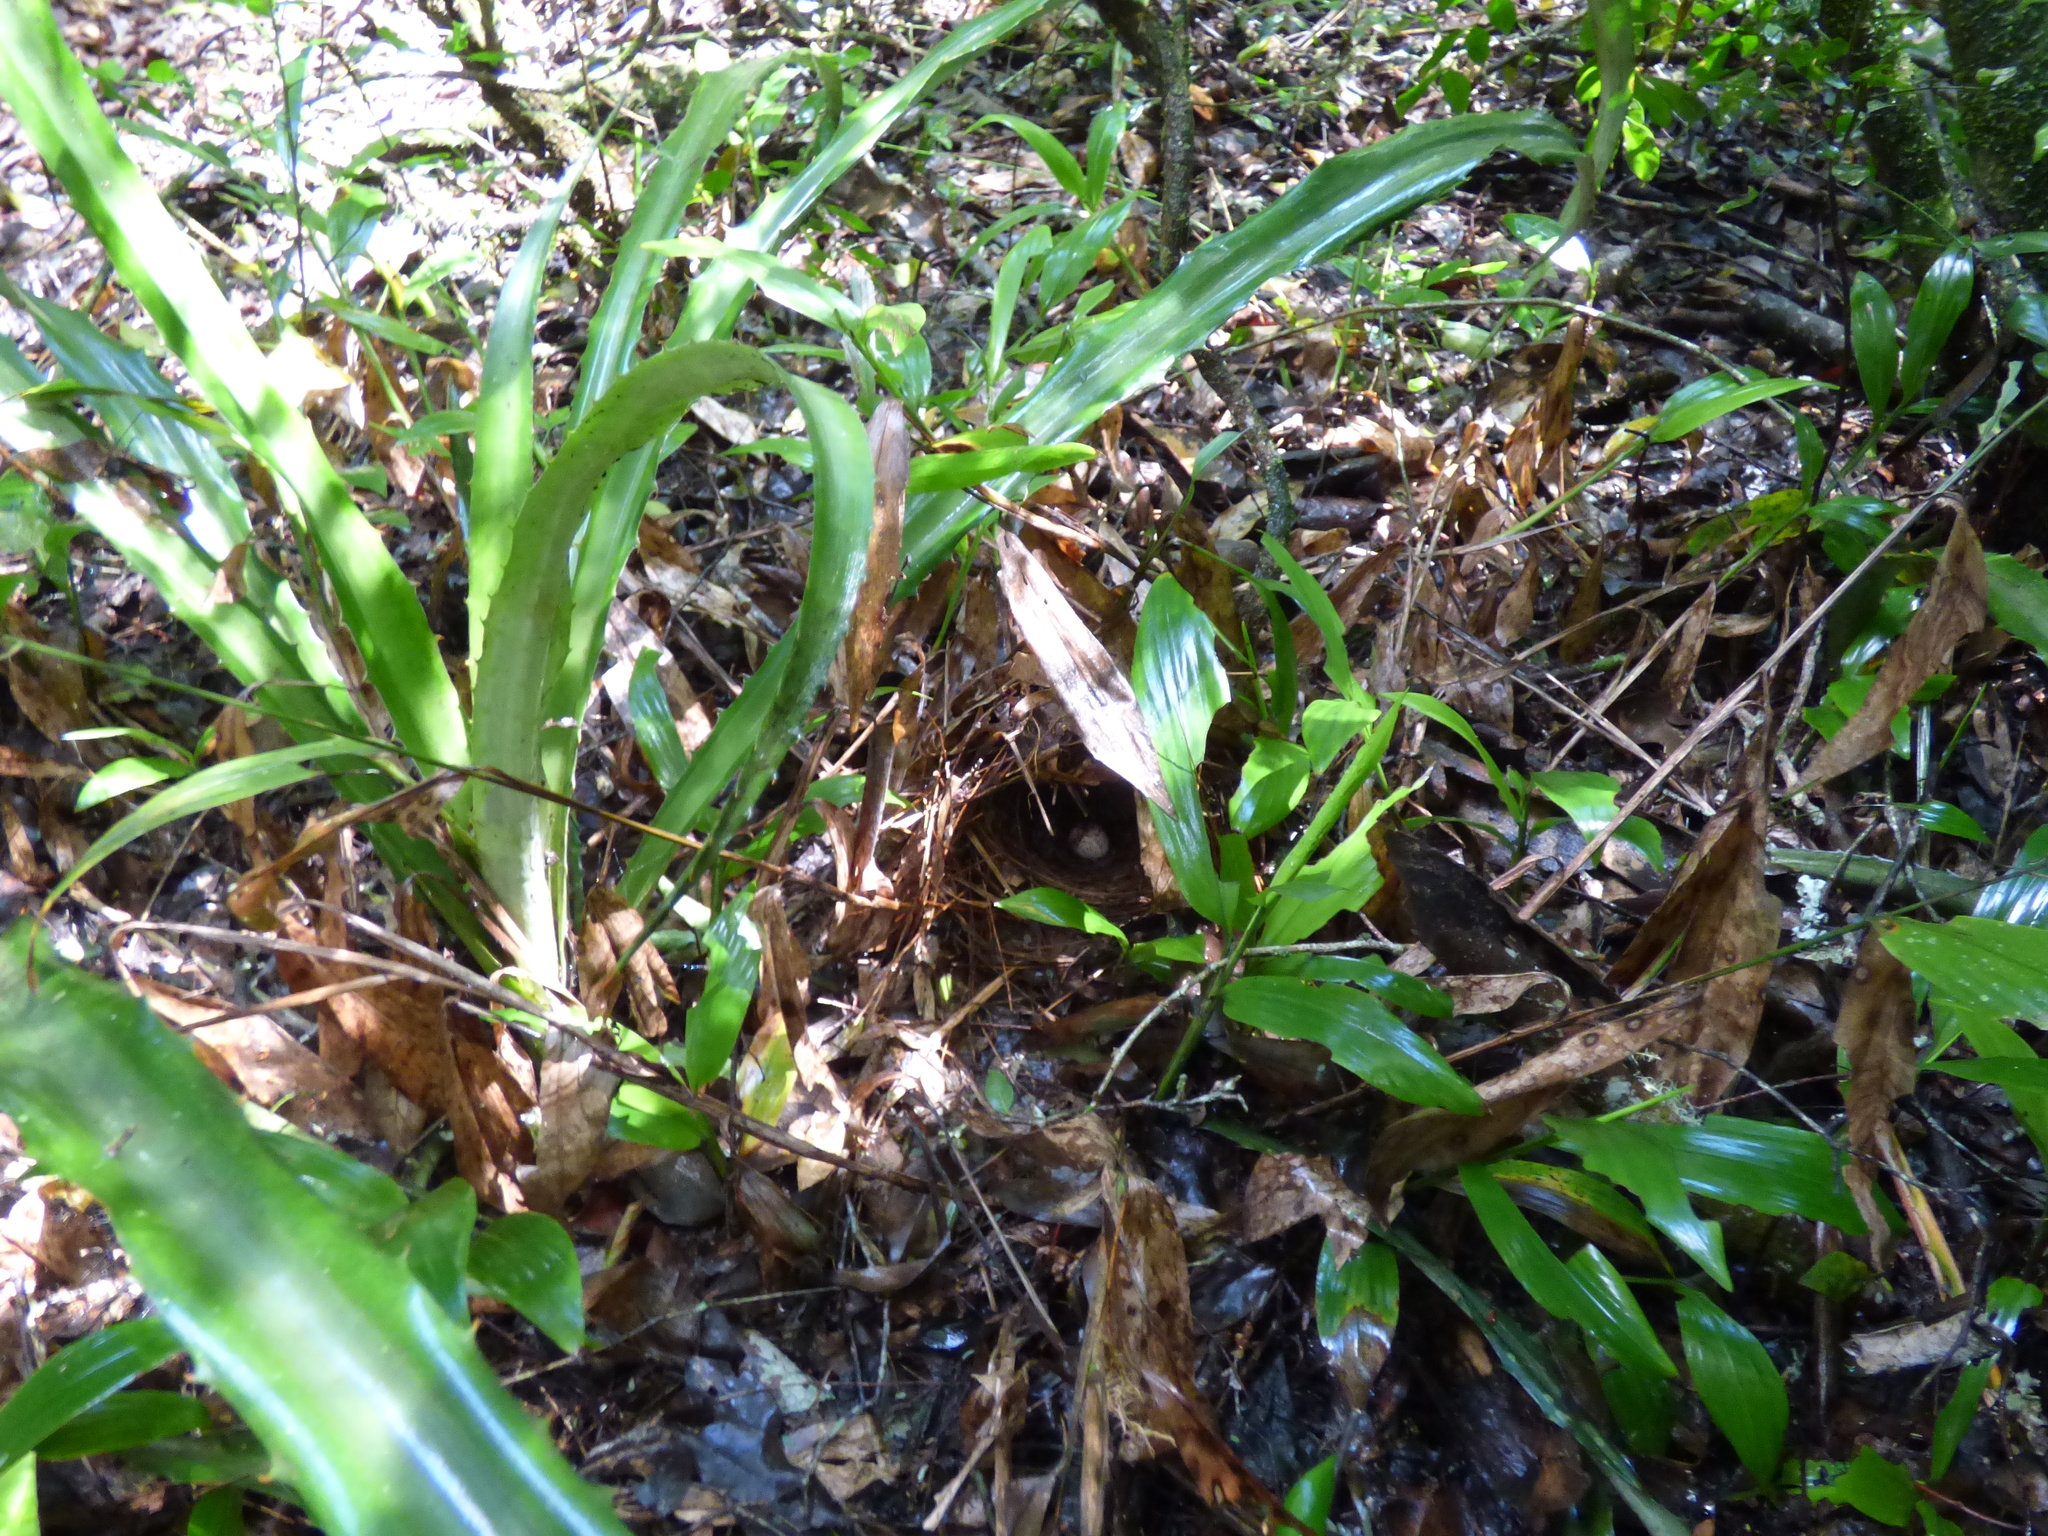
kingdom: Animalia
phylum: Chordata
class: Aves
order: Passeriformes
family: Parulidae
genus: Myiothlypis
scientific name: Myiothlypis leucoblephara
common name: White-rimmed warbler
